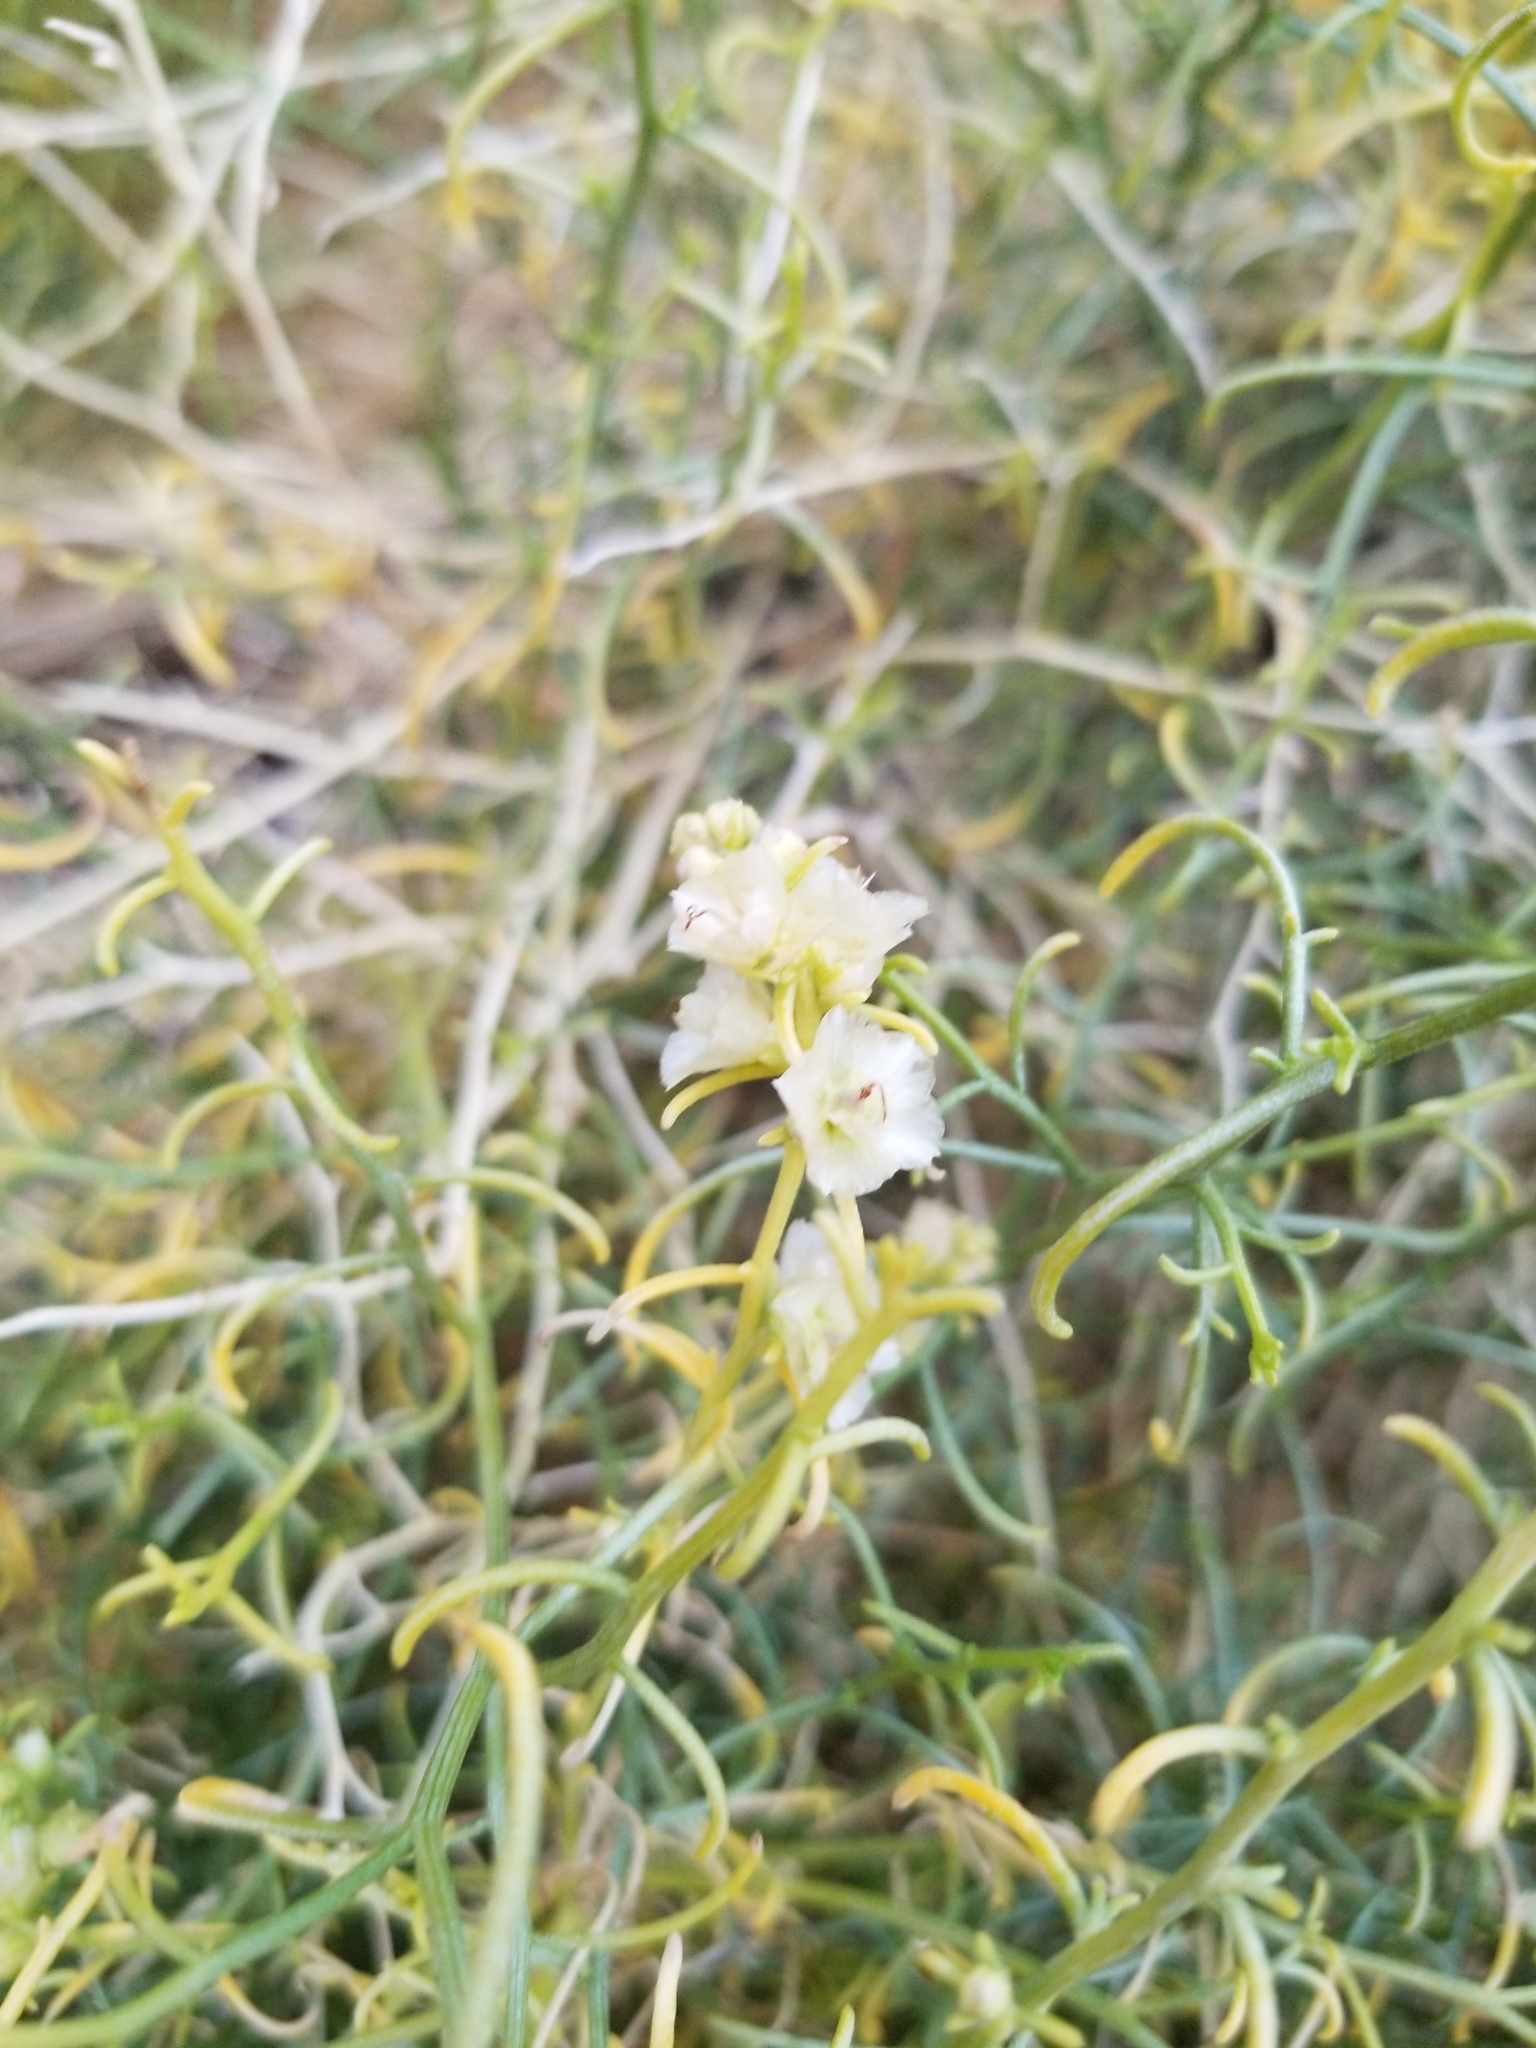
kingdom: Plantae
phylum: Tracheophyta
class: Magnoliopsida
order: Asterales
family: Asteraceae
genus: Ambrosia
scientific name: Ambrosia salsola
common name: Burrobrush
